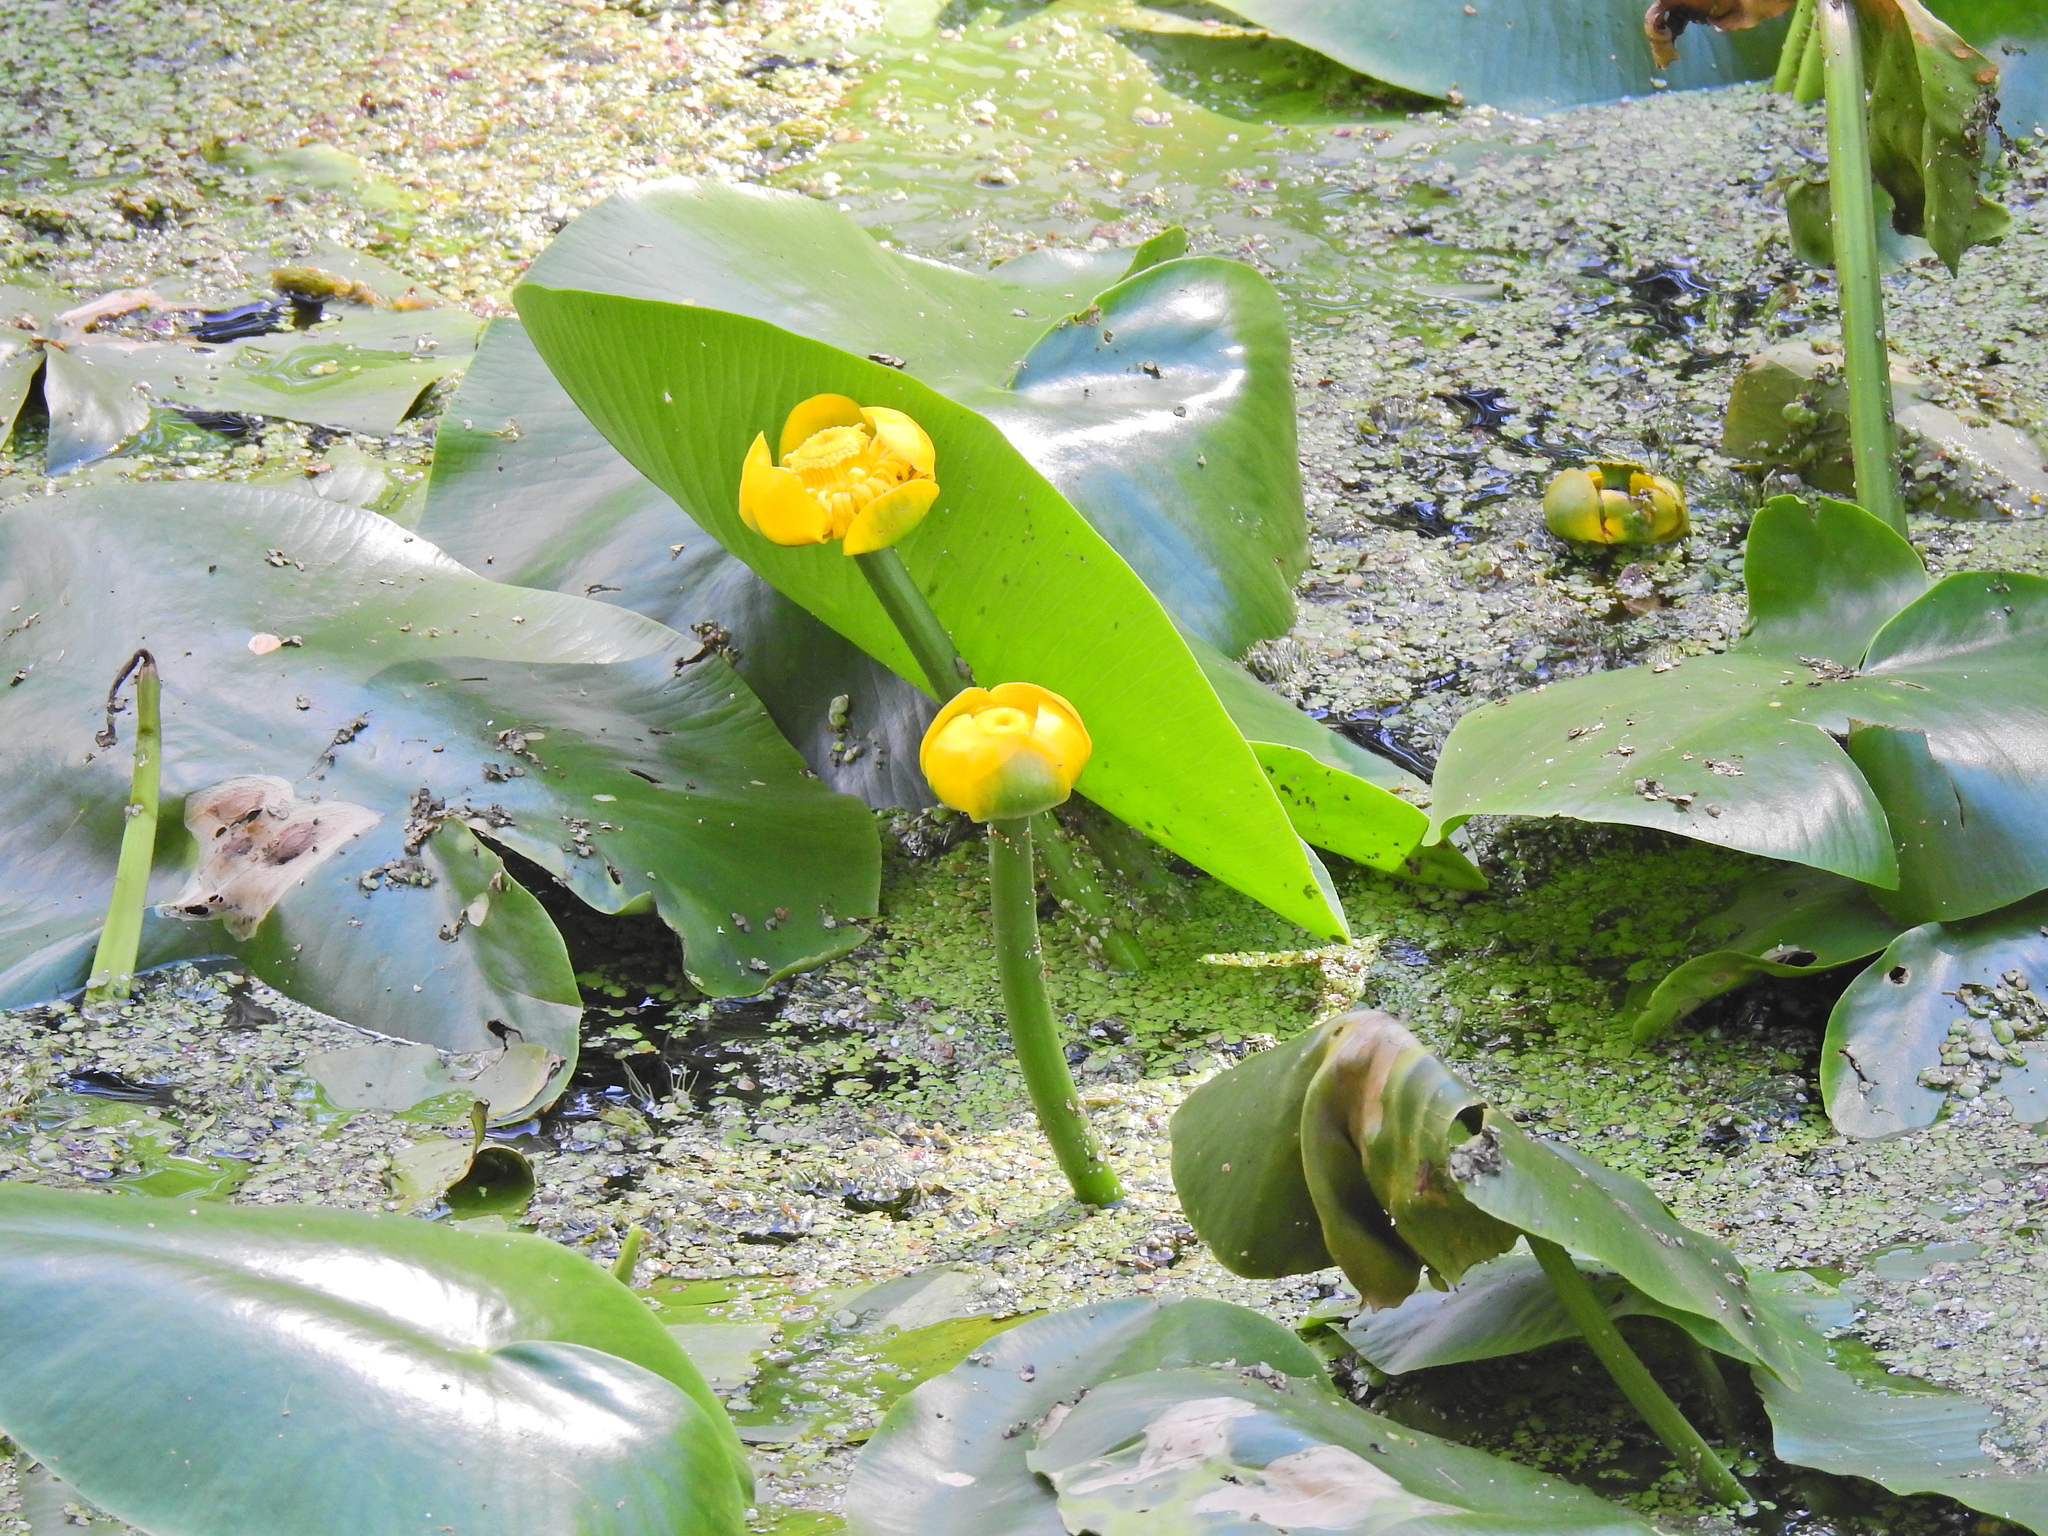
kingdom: Plantae
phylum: Tracheophyta
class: Magnoliopsida
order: Nymphaeales
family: Nymphaeaceae
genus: Nuphar
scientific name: Nuphar lutea
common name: Yellow water-lily
